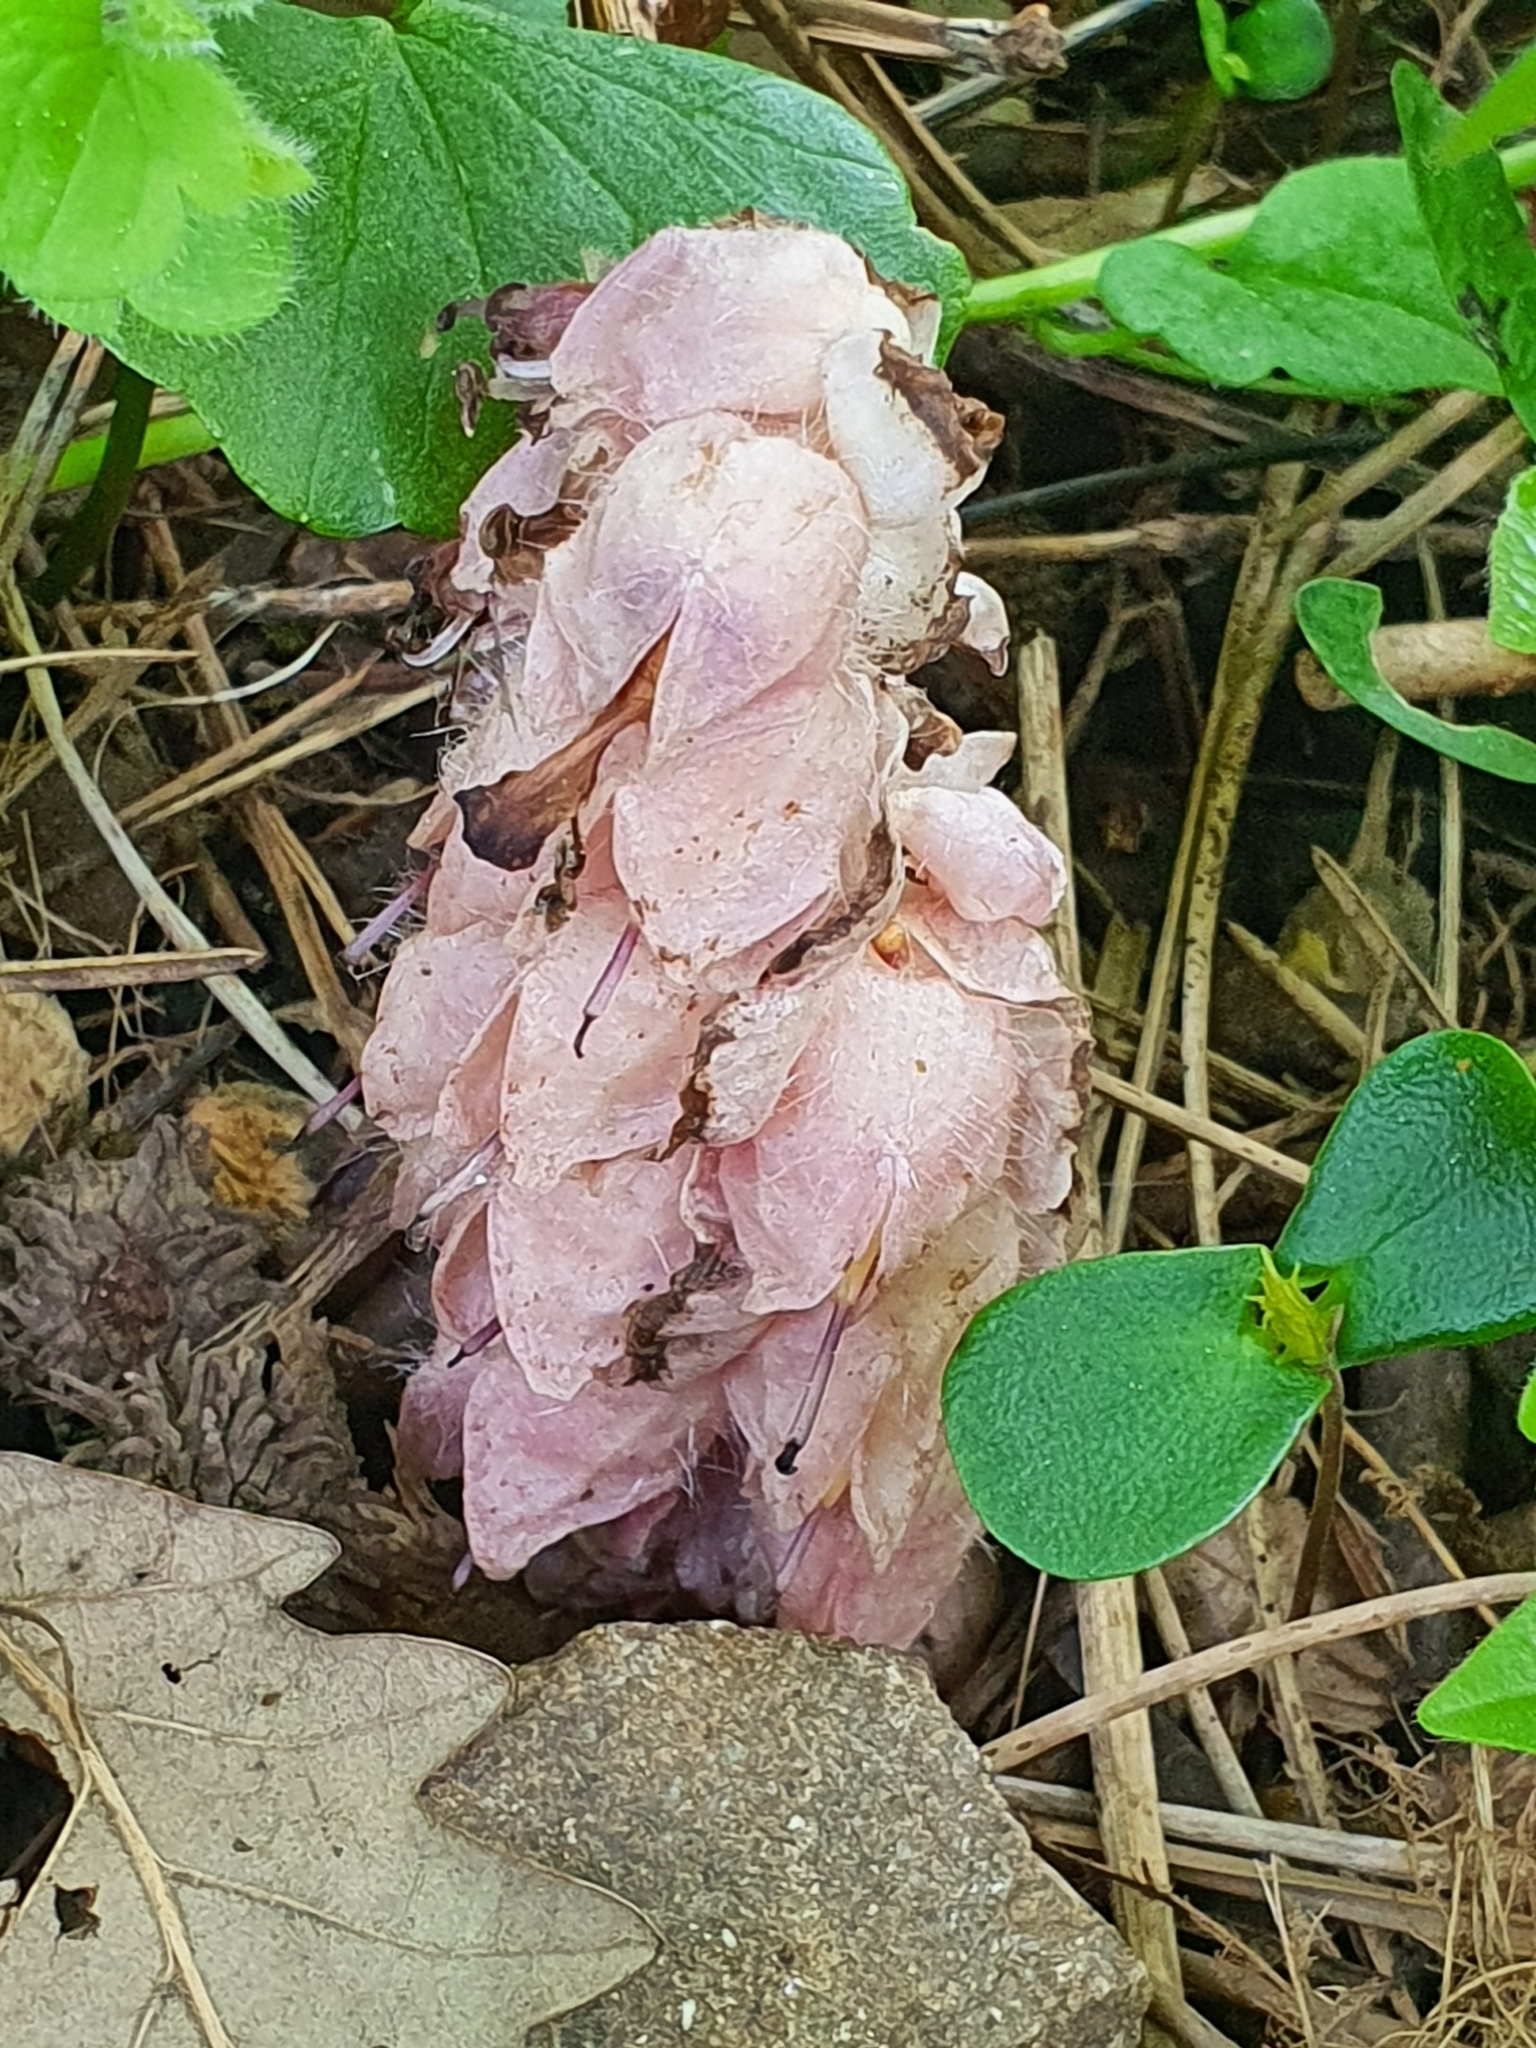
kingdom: Plantae
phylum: Tracheophyta
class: Magnoliopsida
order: Lamiales
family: Orobanchaceae
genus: Lathraea
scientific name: Lathraea squamaria
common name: Toothwort
